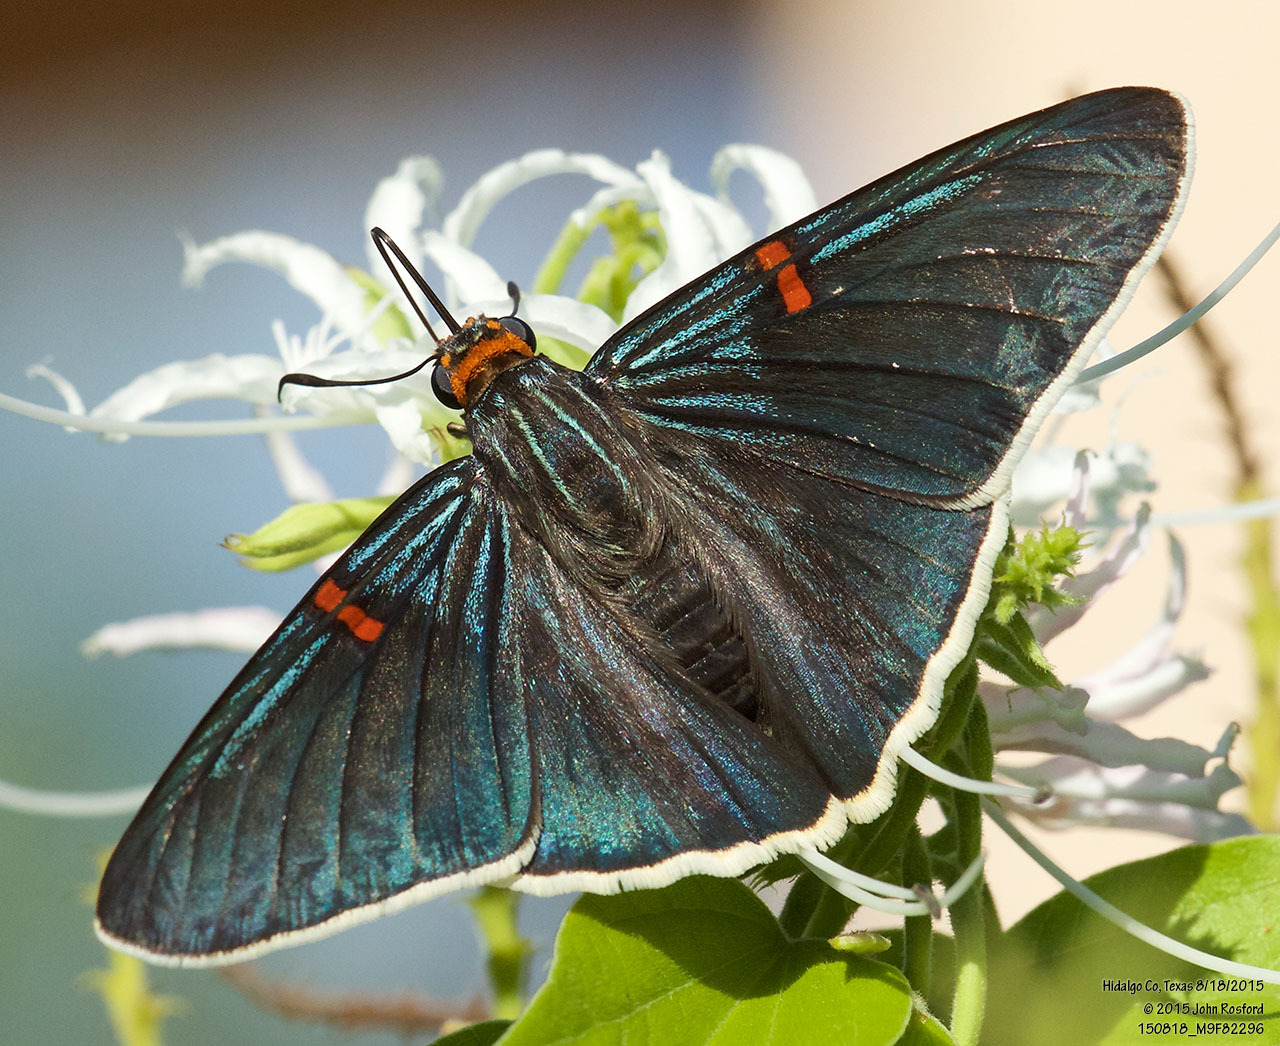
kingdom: Animalia
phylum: Arthropoda
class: Insecta
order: Lepidoptera
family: Hesperiidae
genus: Phocides
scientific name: Phocides lilea
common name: Guava skipper
